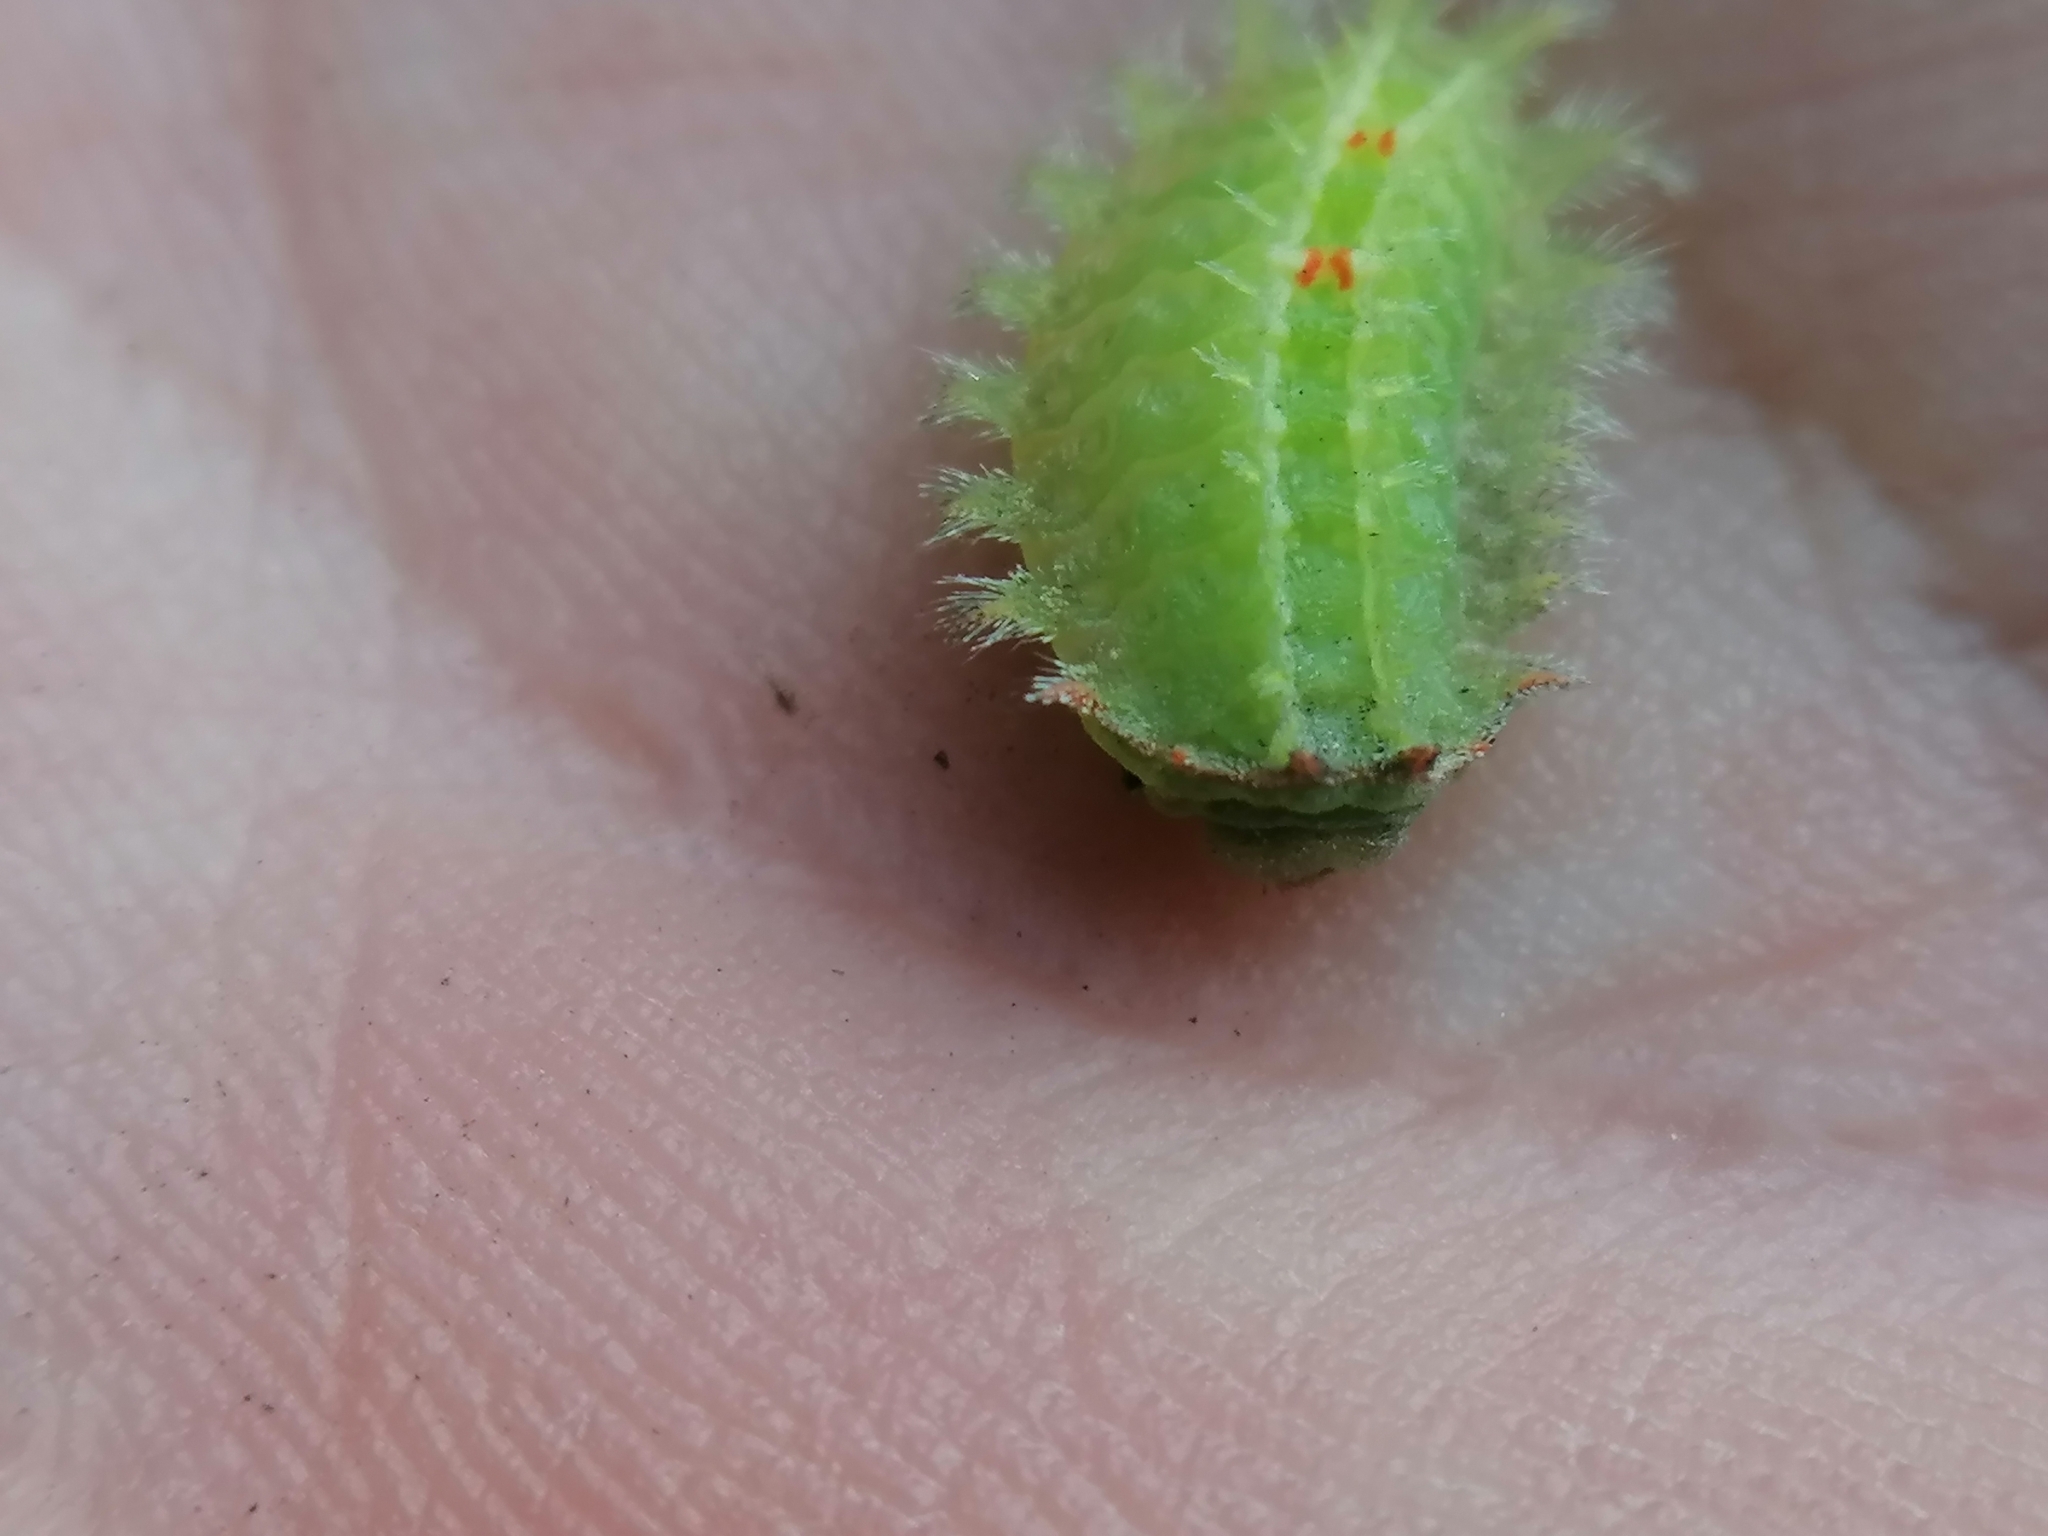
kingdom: Animalia
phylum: Arthropoda
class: Insecta
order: Lepidoptera
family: Limacodidae
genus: Isa
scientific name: Isa textula
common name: Crowned slug moth
